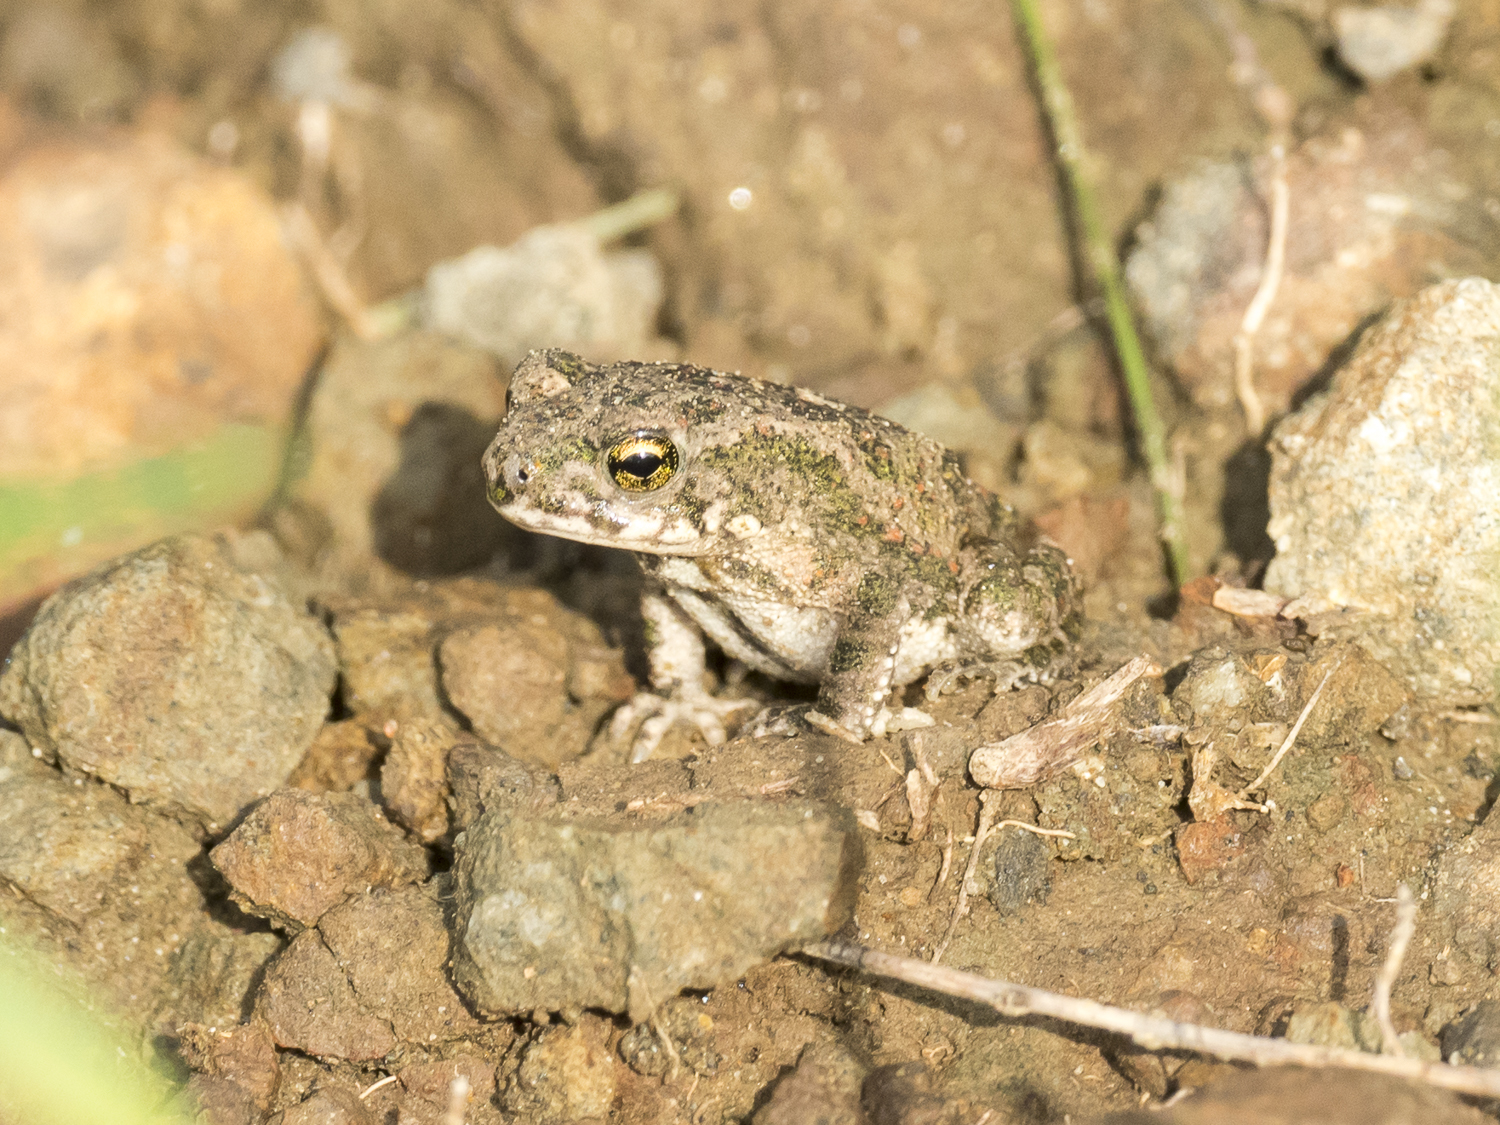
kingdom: Animalia
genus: Firouzophrynus
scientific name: Firouzophrynus
